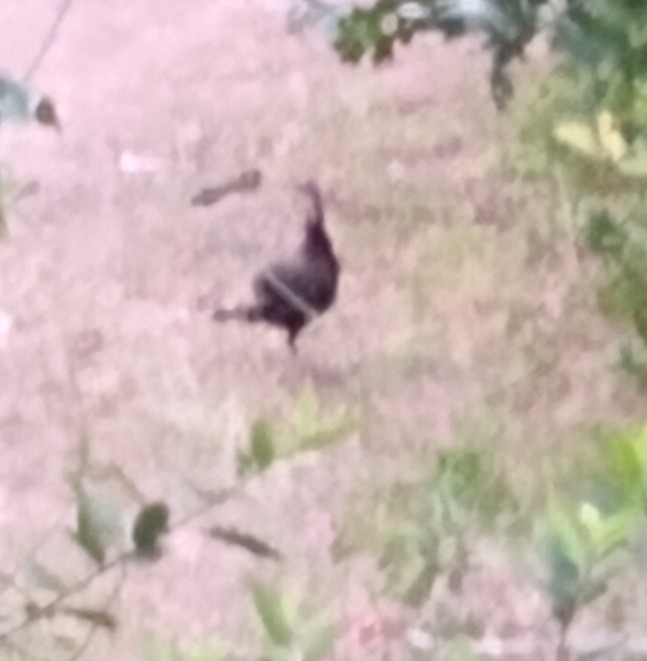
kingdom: Animalia
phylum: Chordata
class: Aves
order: Galliformes
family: Phasianidae
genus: Meleagris
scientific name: Meleagris gallopavo
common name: Wild turkey
